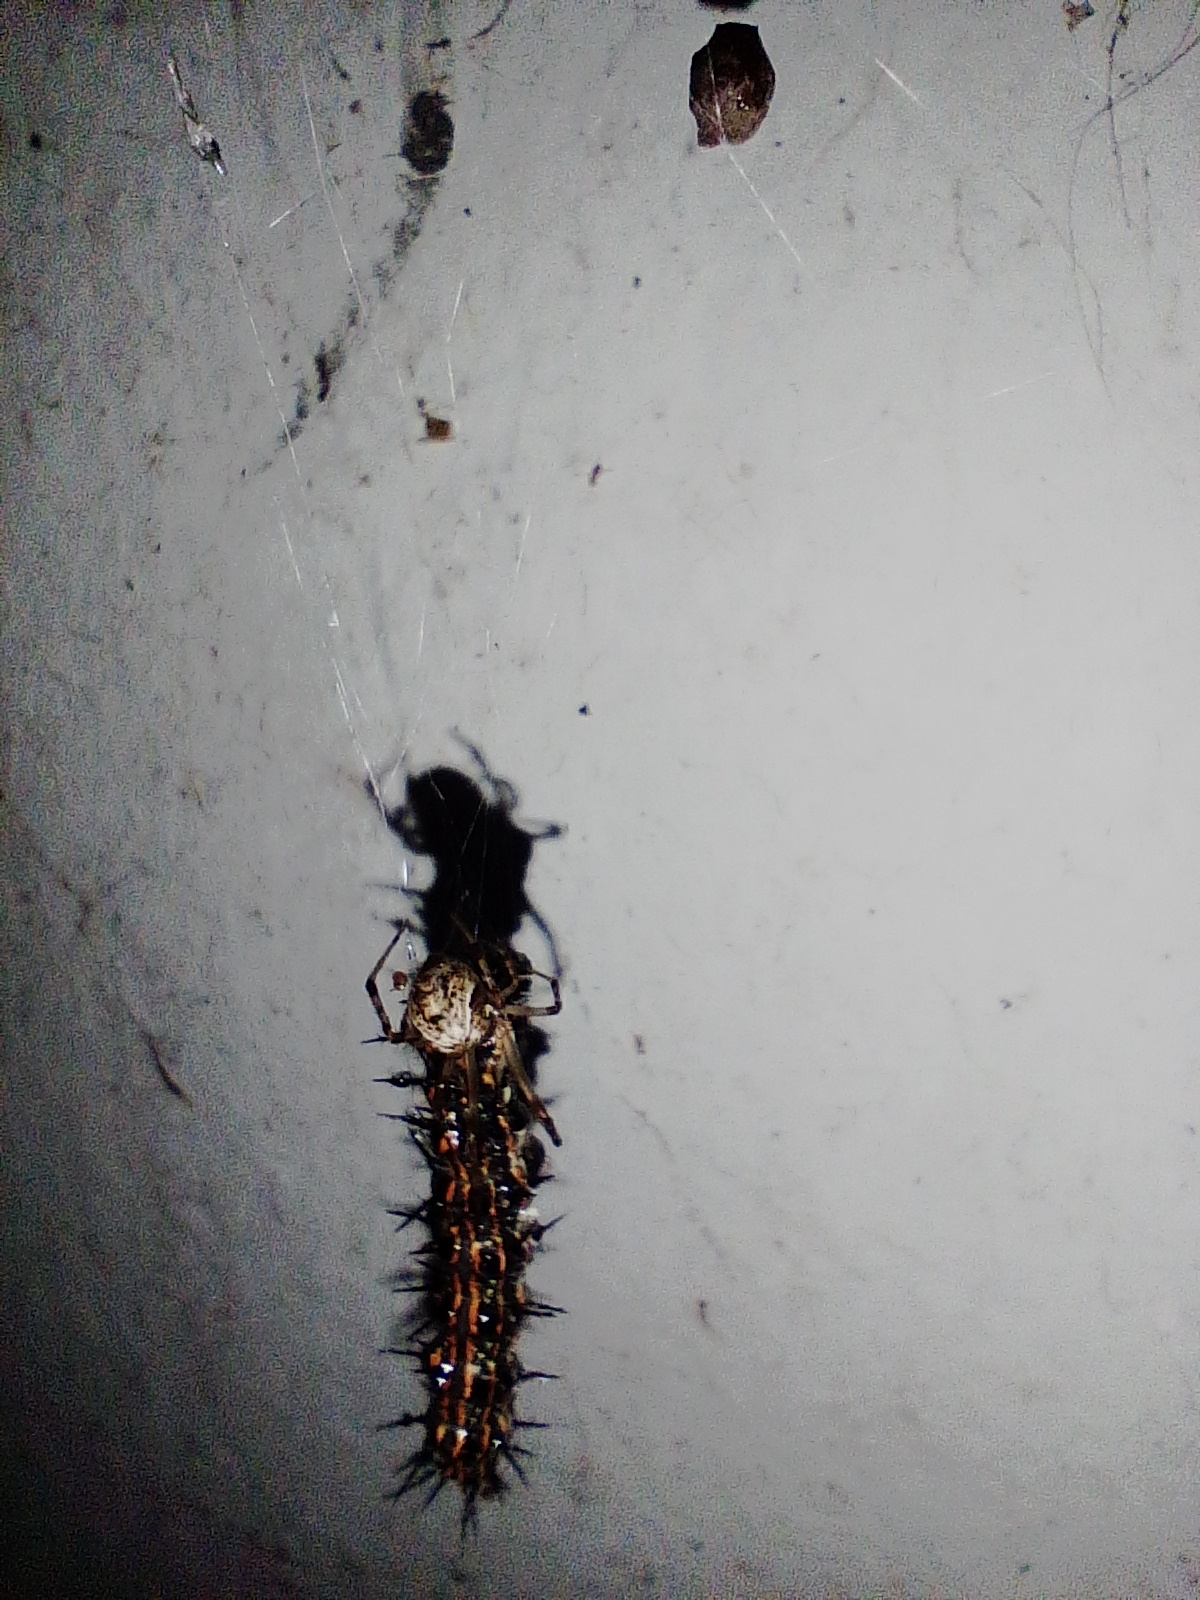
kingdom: Animalia
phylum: Arthropoda
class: Arachnida
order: Araneae
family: Theridiidae
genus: Parasteatoda
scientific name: Parasteatoda tepidariorum
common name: Common house spider
